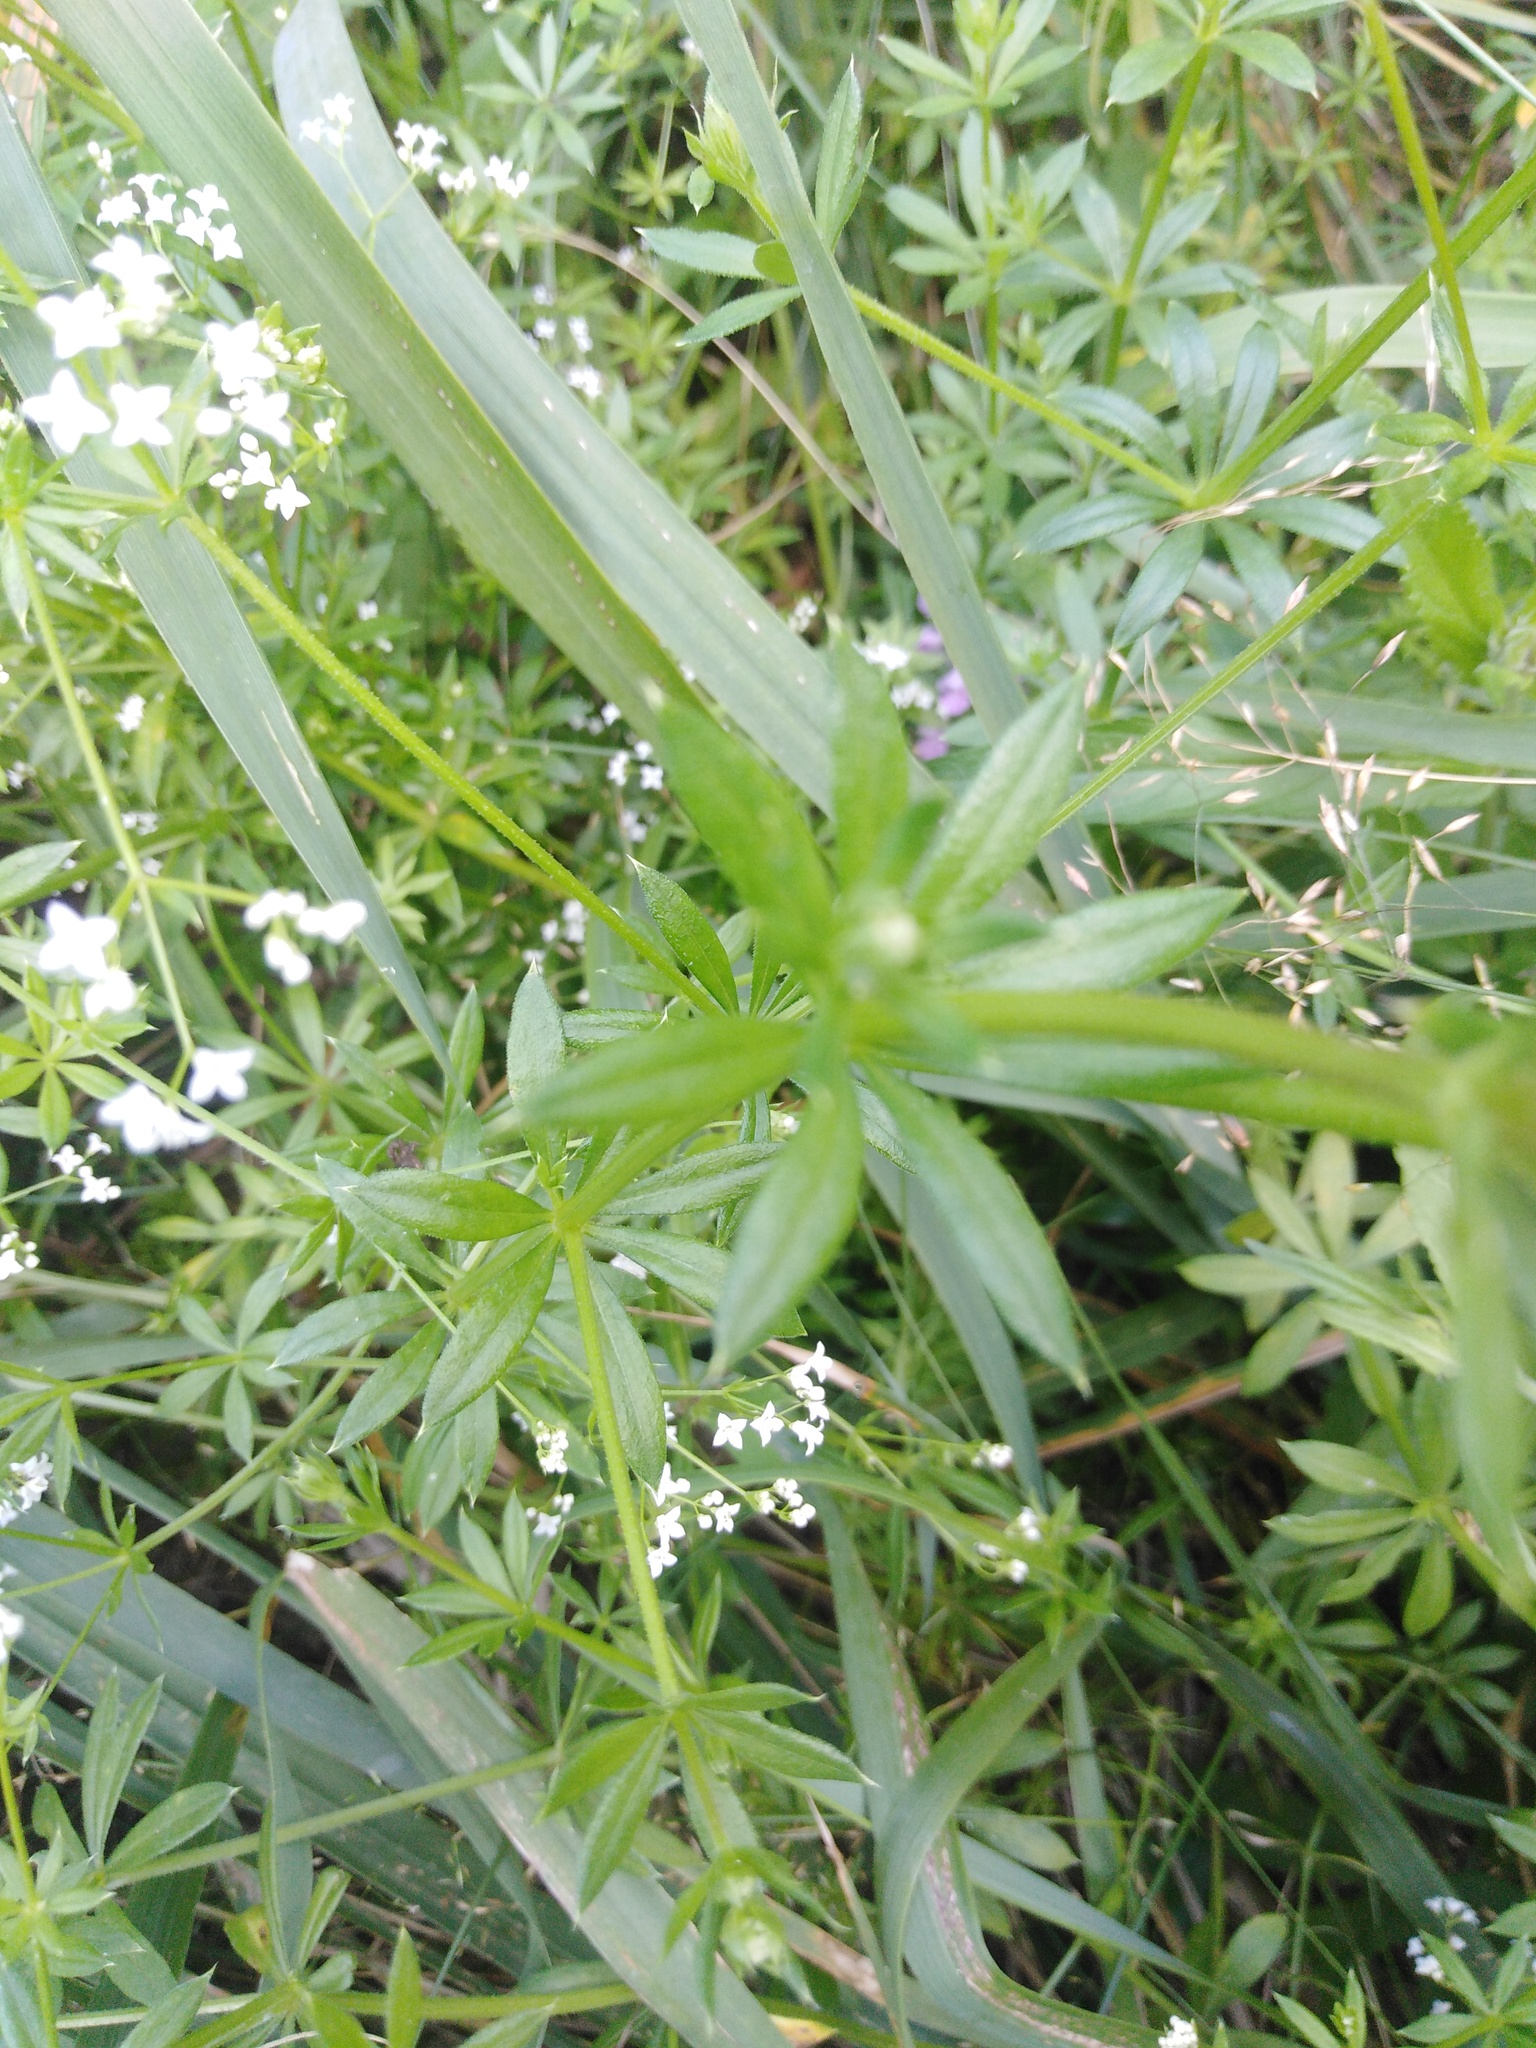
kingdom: Plantae
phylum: Tracheophyta
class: Magnoliopsida
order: Gentianales
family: Rubiaceae
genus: Galium
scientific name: Galium rivale
